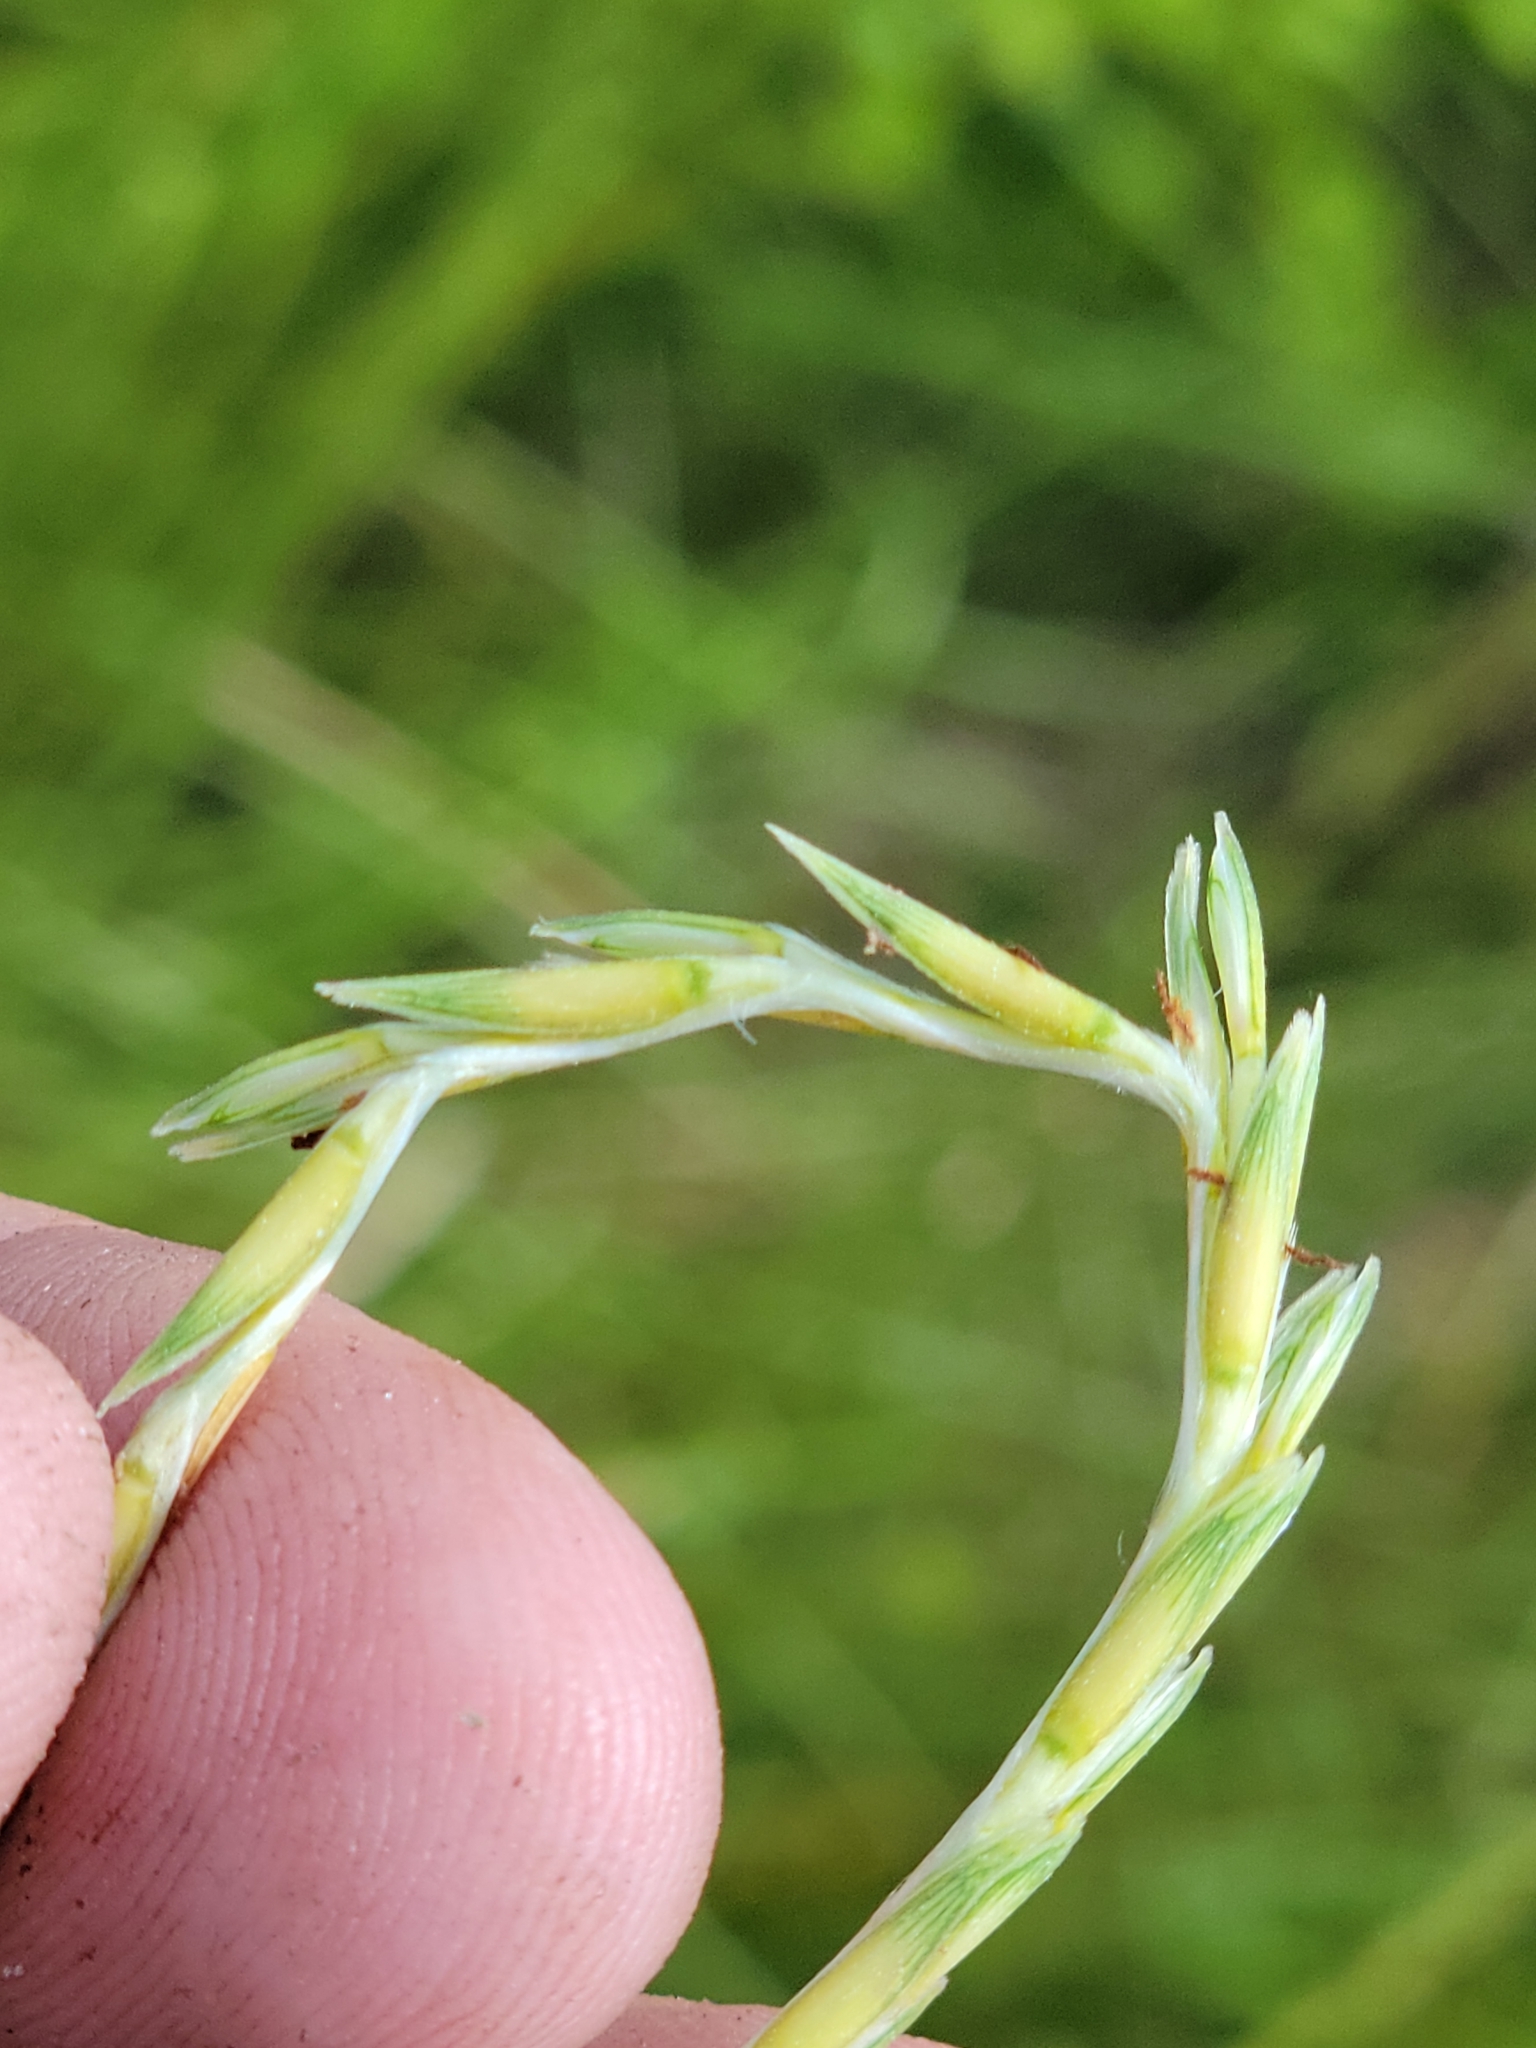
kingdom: Plantae
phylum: Tracheophyta
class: Liliopsida
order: Poales
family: Poaceae
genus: Elionurus
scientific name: Elionurus tripsacoides
